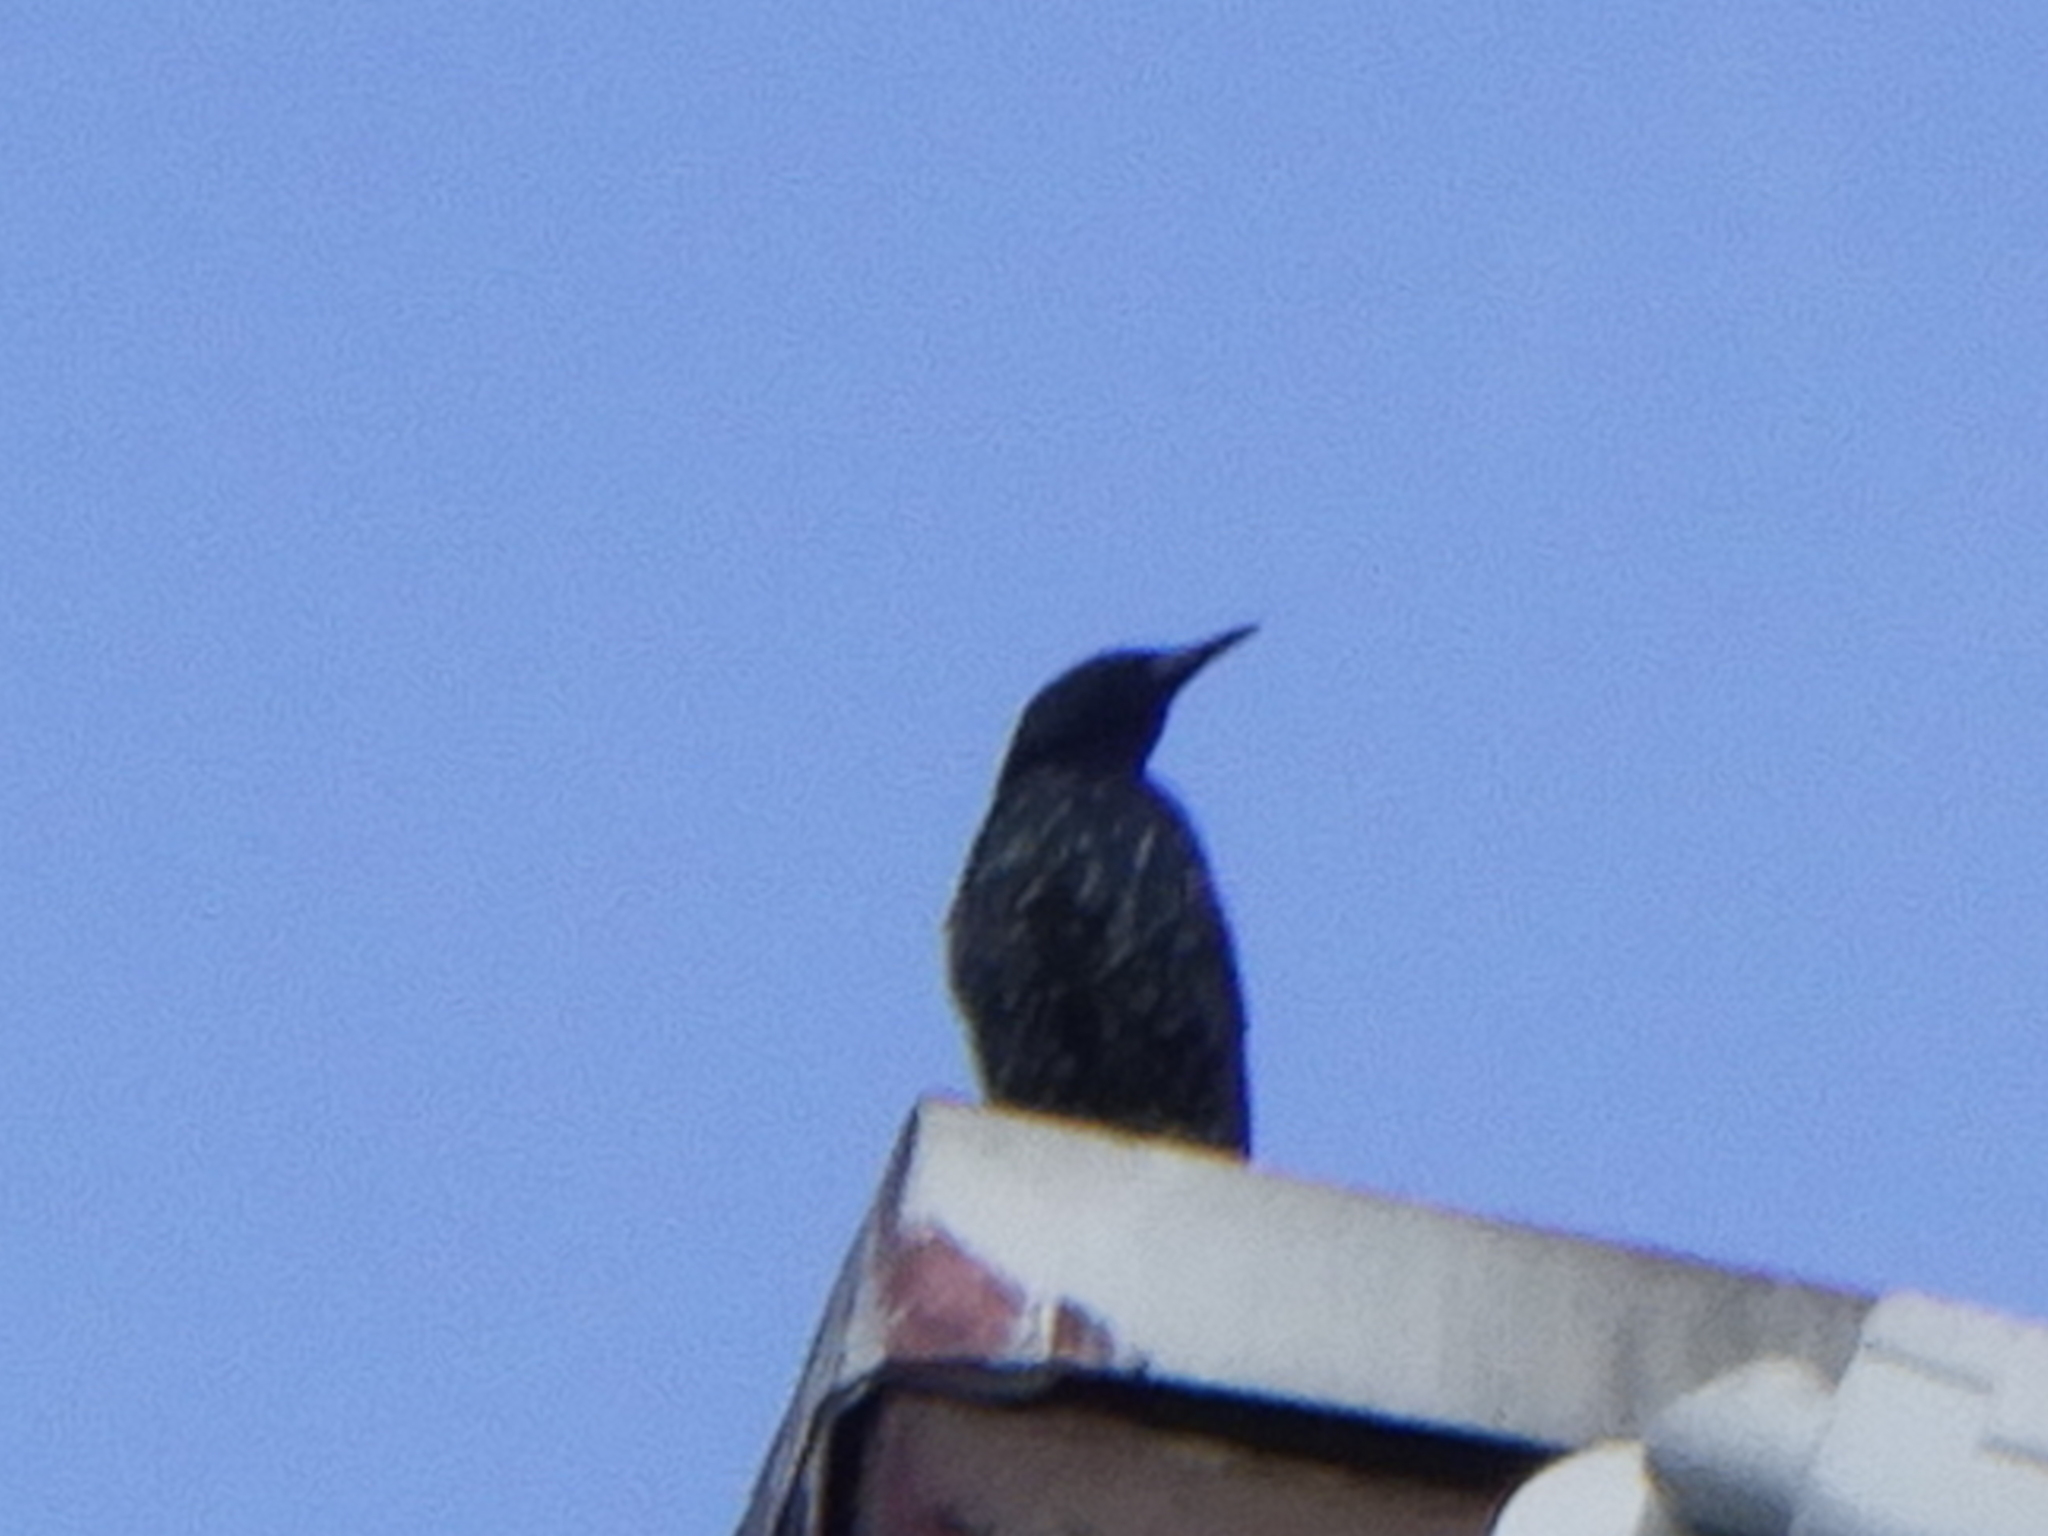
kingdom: Animalia
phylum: Chordata
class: Aves
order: Passeriformes
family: Sturnidae
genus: Sturnus
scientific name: Sturnus vulgaris
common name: Common starling
